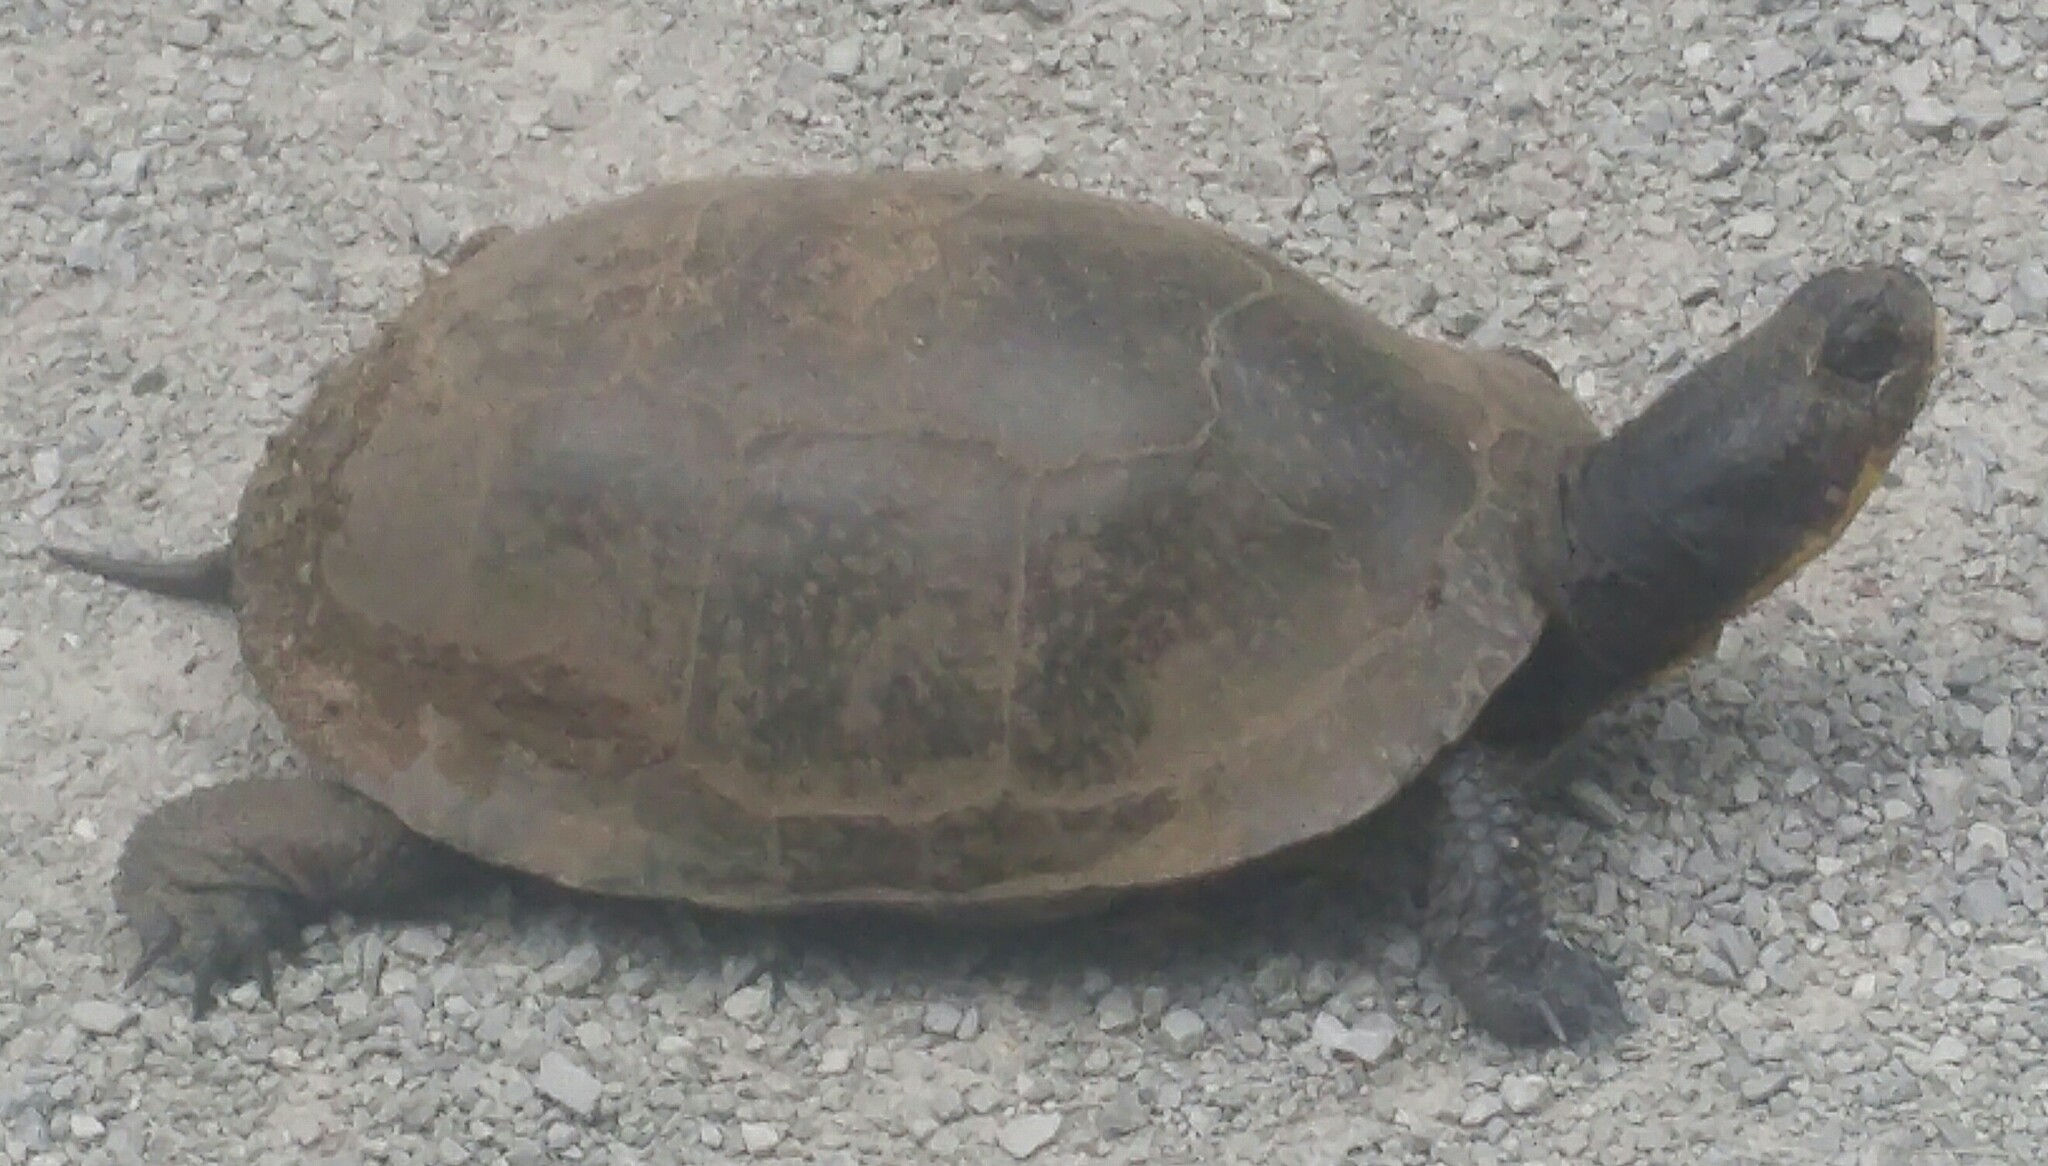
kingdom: Animalia
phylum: Chordata
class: Testudines
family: Emydidae
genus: Emys
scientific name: Emys blandingii
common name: Blanding's turtle
